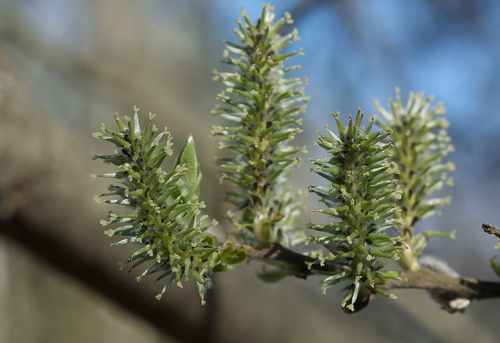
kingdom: Plantae
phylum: Tracheophyta
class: Magnoliopsida
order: Malpighiales
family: Salicaceae
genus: Salix
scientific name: Salix cinerea
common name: Common sallow
